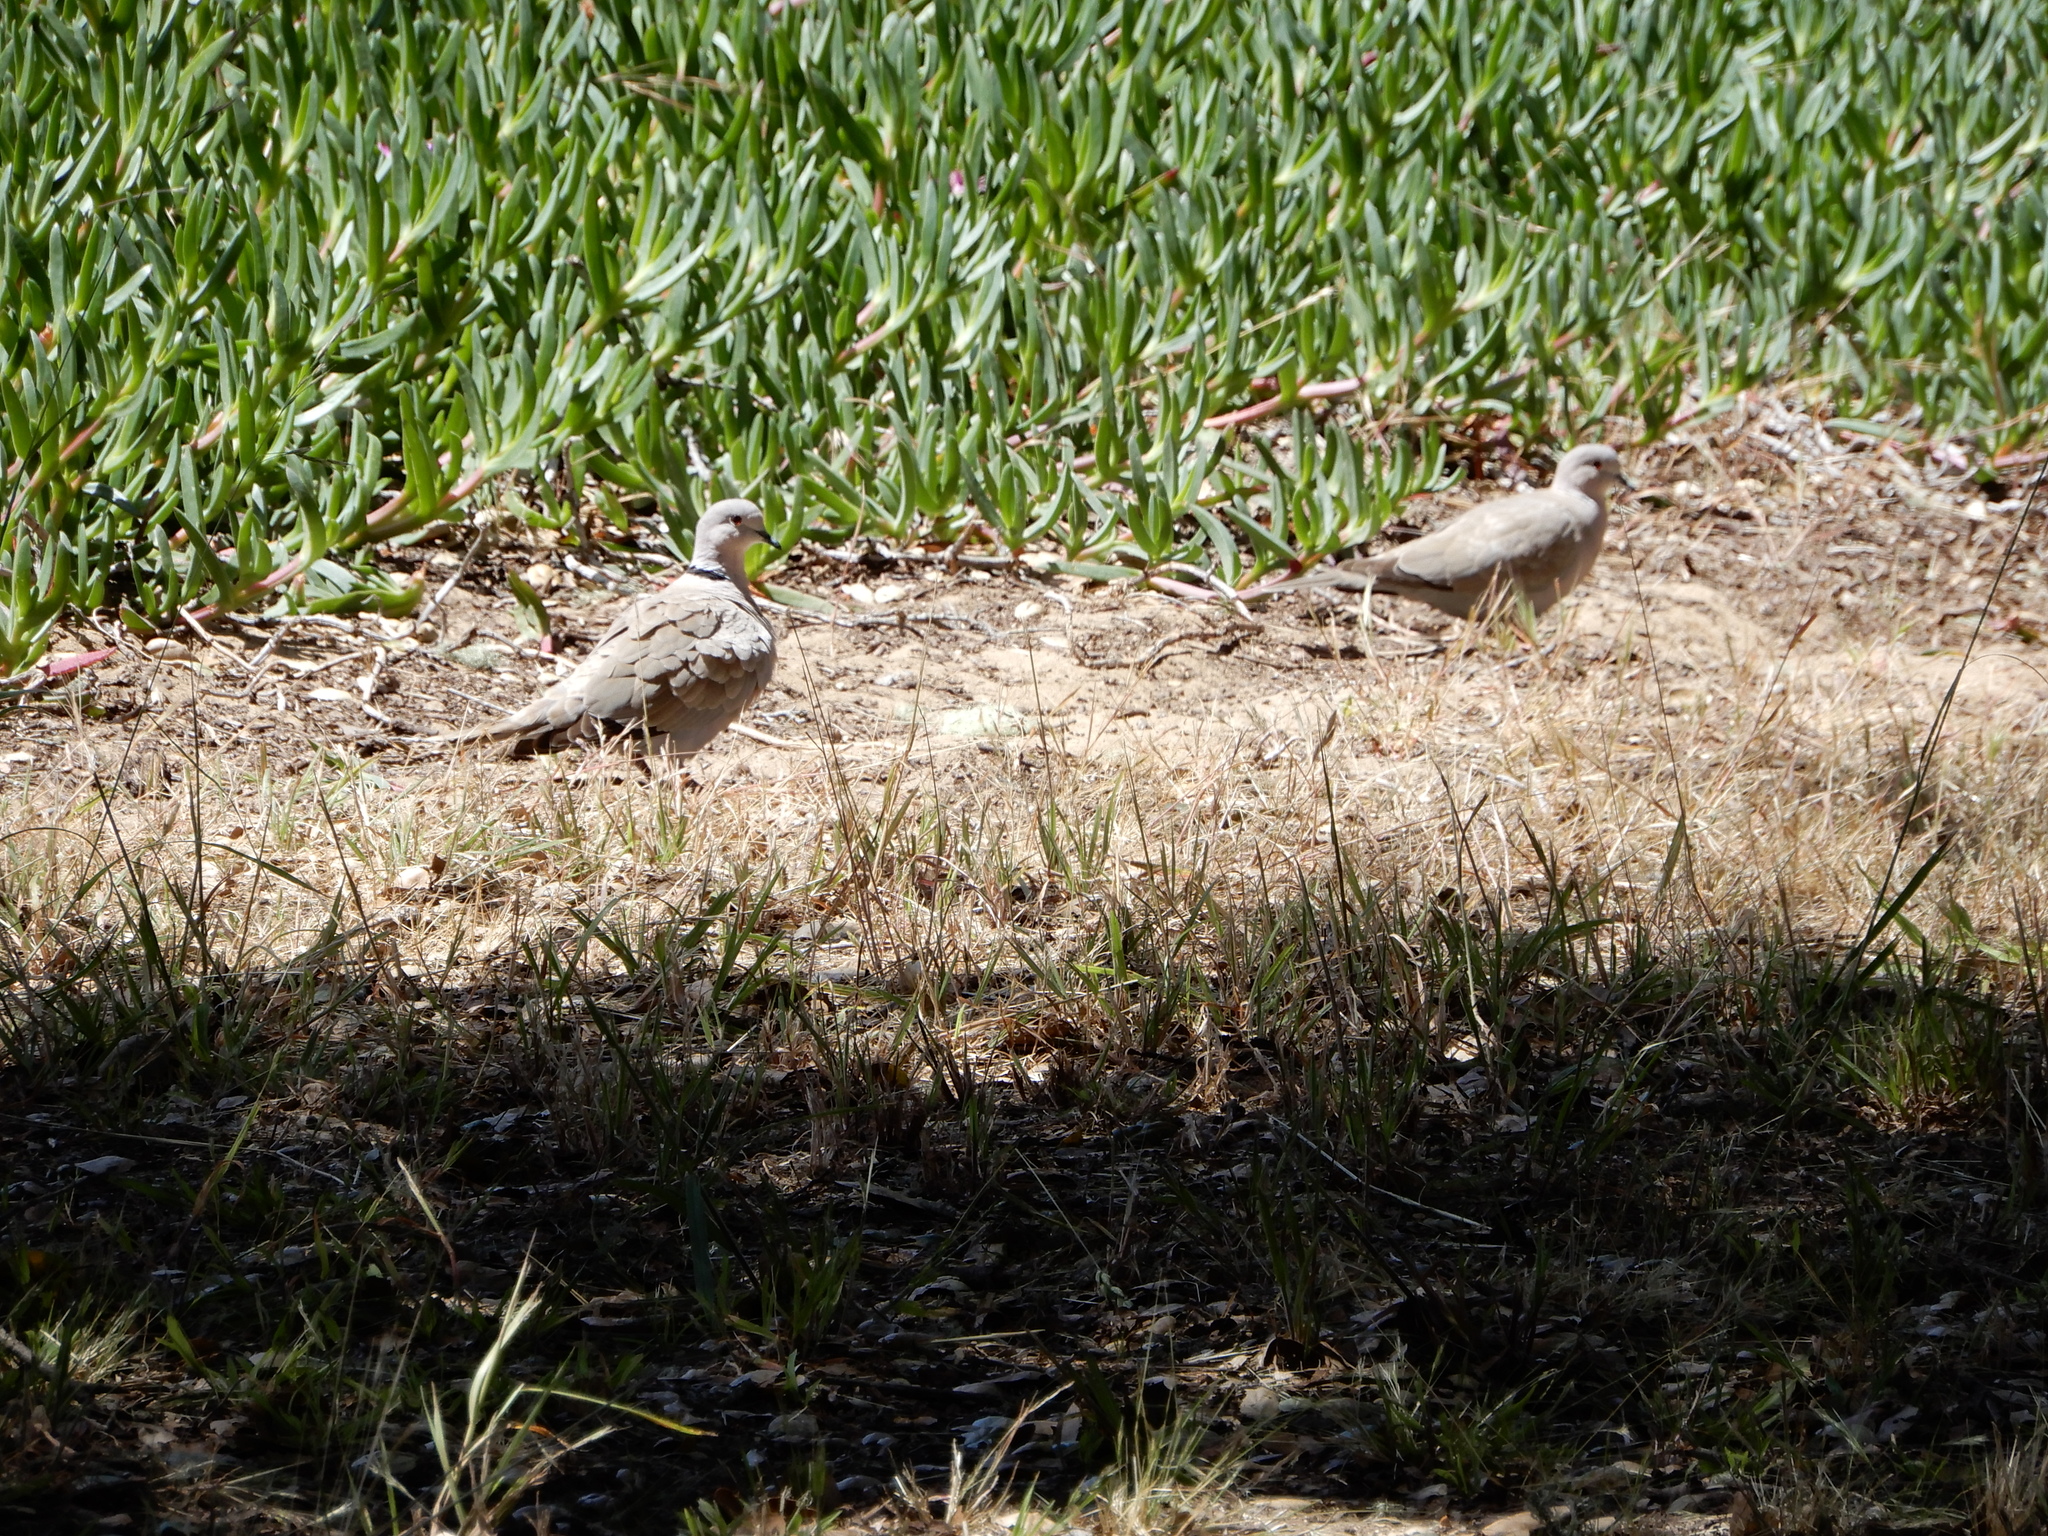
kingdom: Animalia
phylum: Chordata
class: Aves
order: Columbiformes
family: Columbidae
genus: Streptopelia
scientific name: Streptopelia decaocto
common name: Eurasian collared dove
